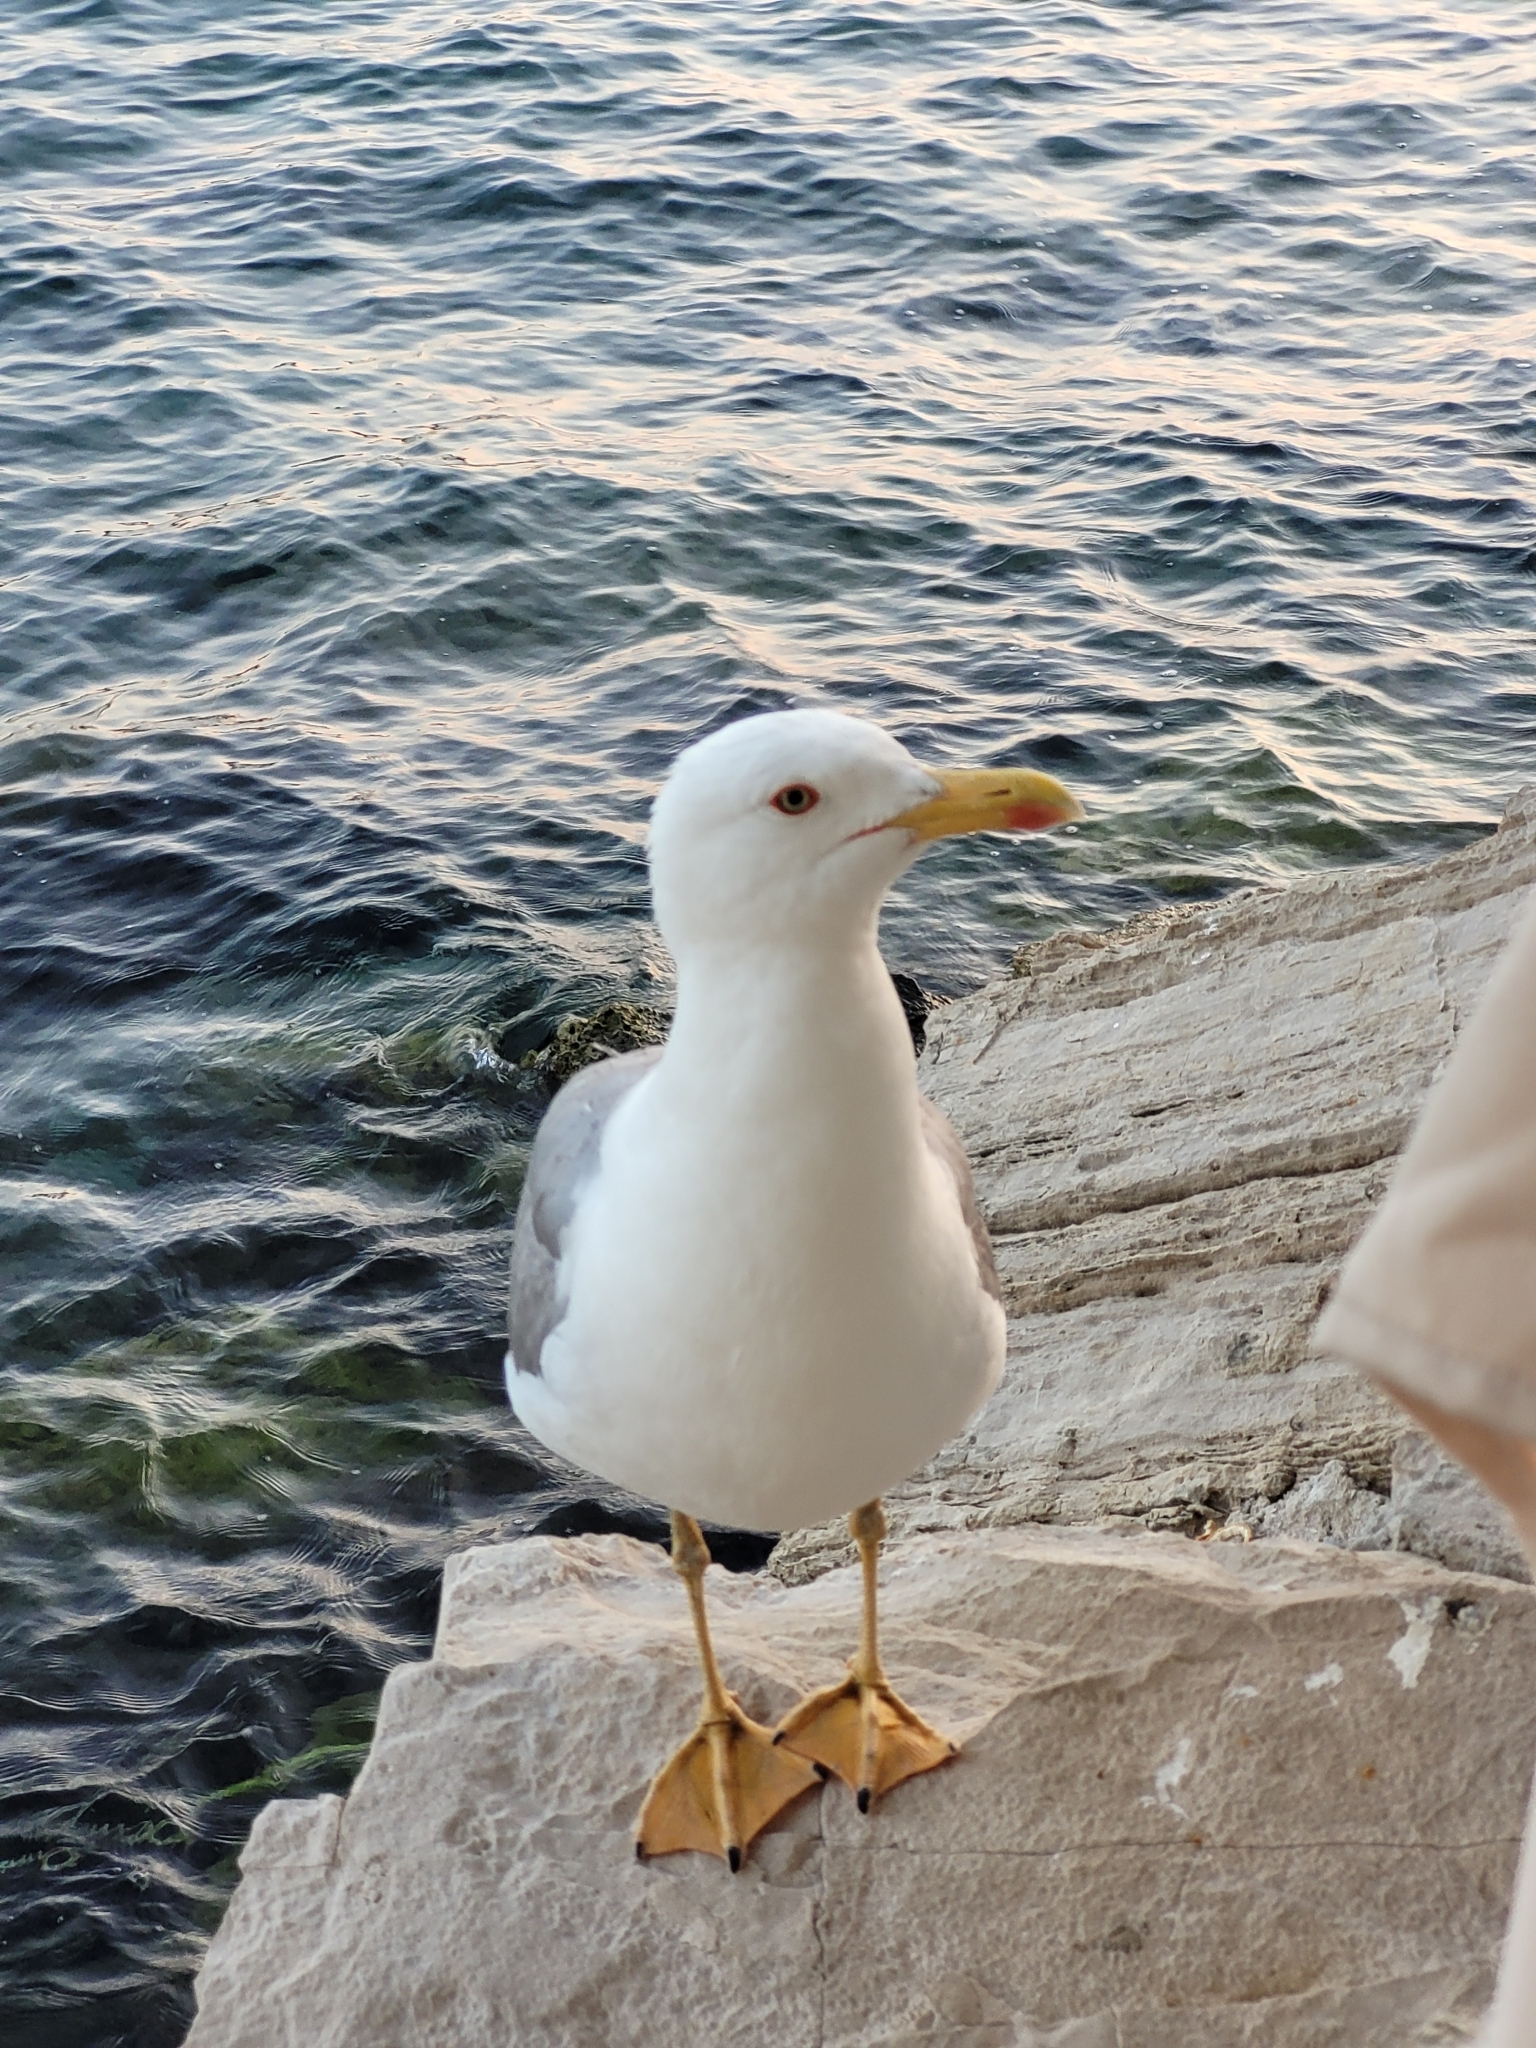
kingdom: Animalia
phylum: Chordata
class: Aves
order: Charadriiformes
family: Laridae
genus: Larus
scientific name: Larus michahellis
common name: Yellow-legged gull
